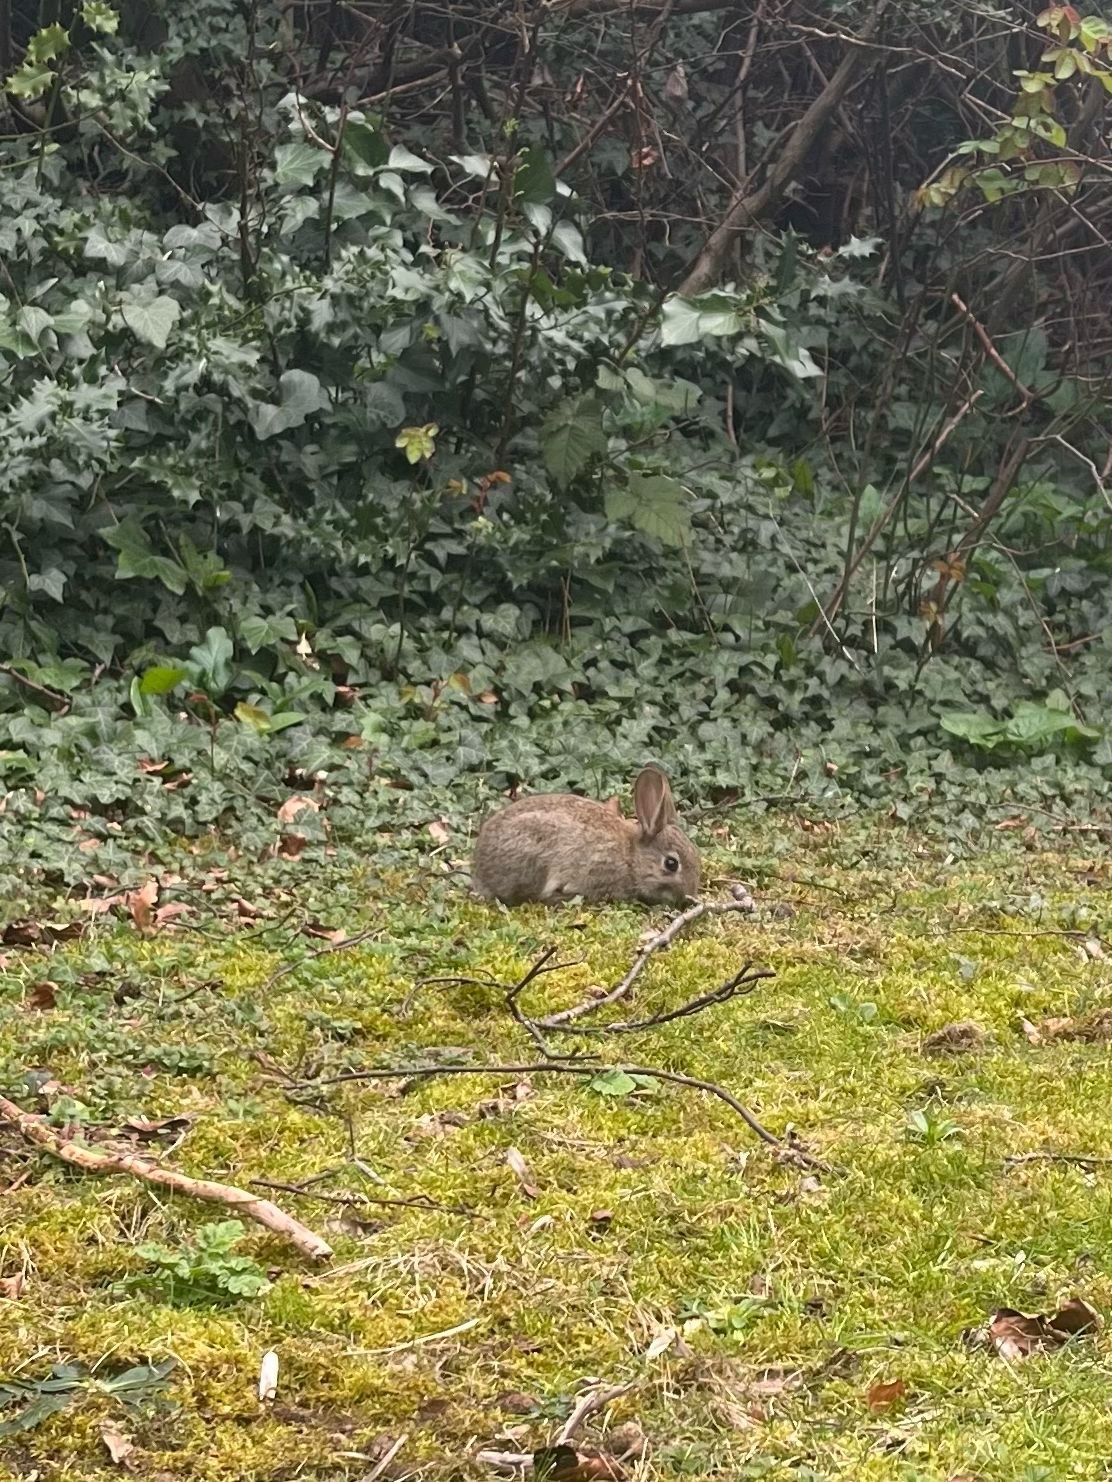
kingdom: Animalia
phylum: Chordata
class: Mammalia
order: Lagomorpha
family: Leporidae
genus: Oryctolagus
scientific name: Oryctolagus cuniculus
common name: European rabbit
